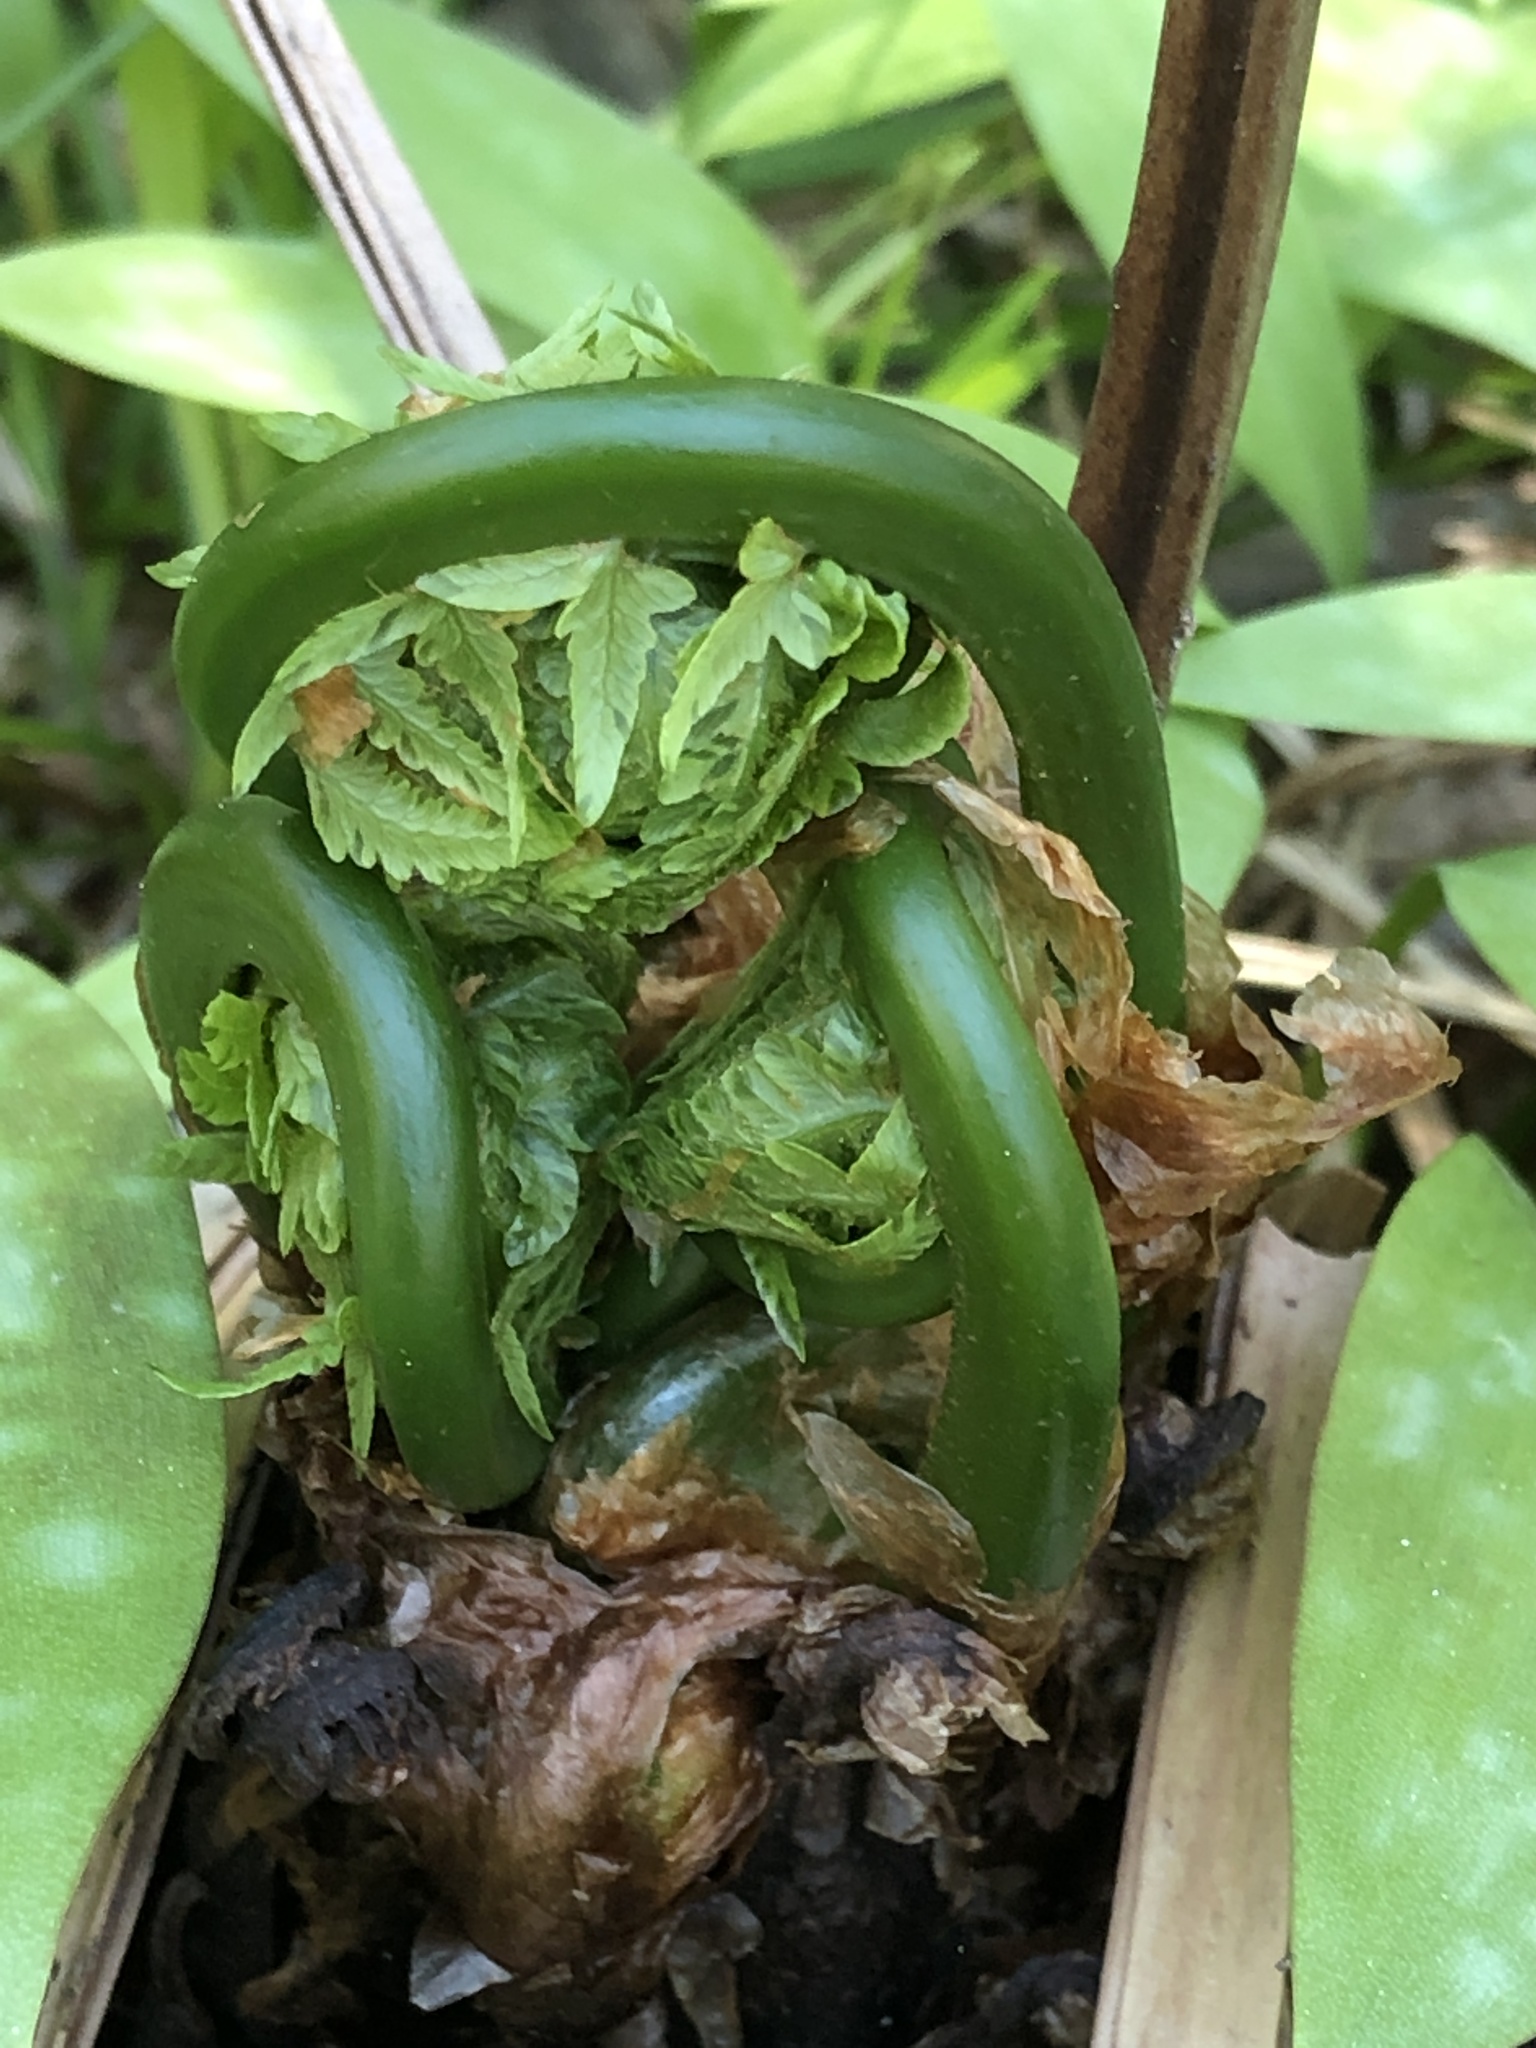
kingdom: Plantae
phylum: Tracheophyta
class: Polypodiopsida
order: Polypodiales
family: Onocleaceae
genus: Matteuccia
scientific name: Matteuccia struthiopteris
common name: Ostrich fern
